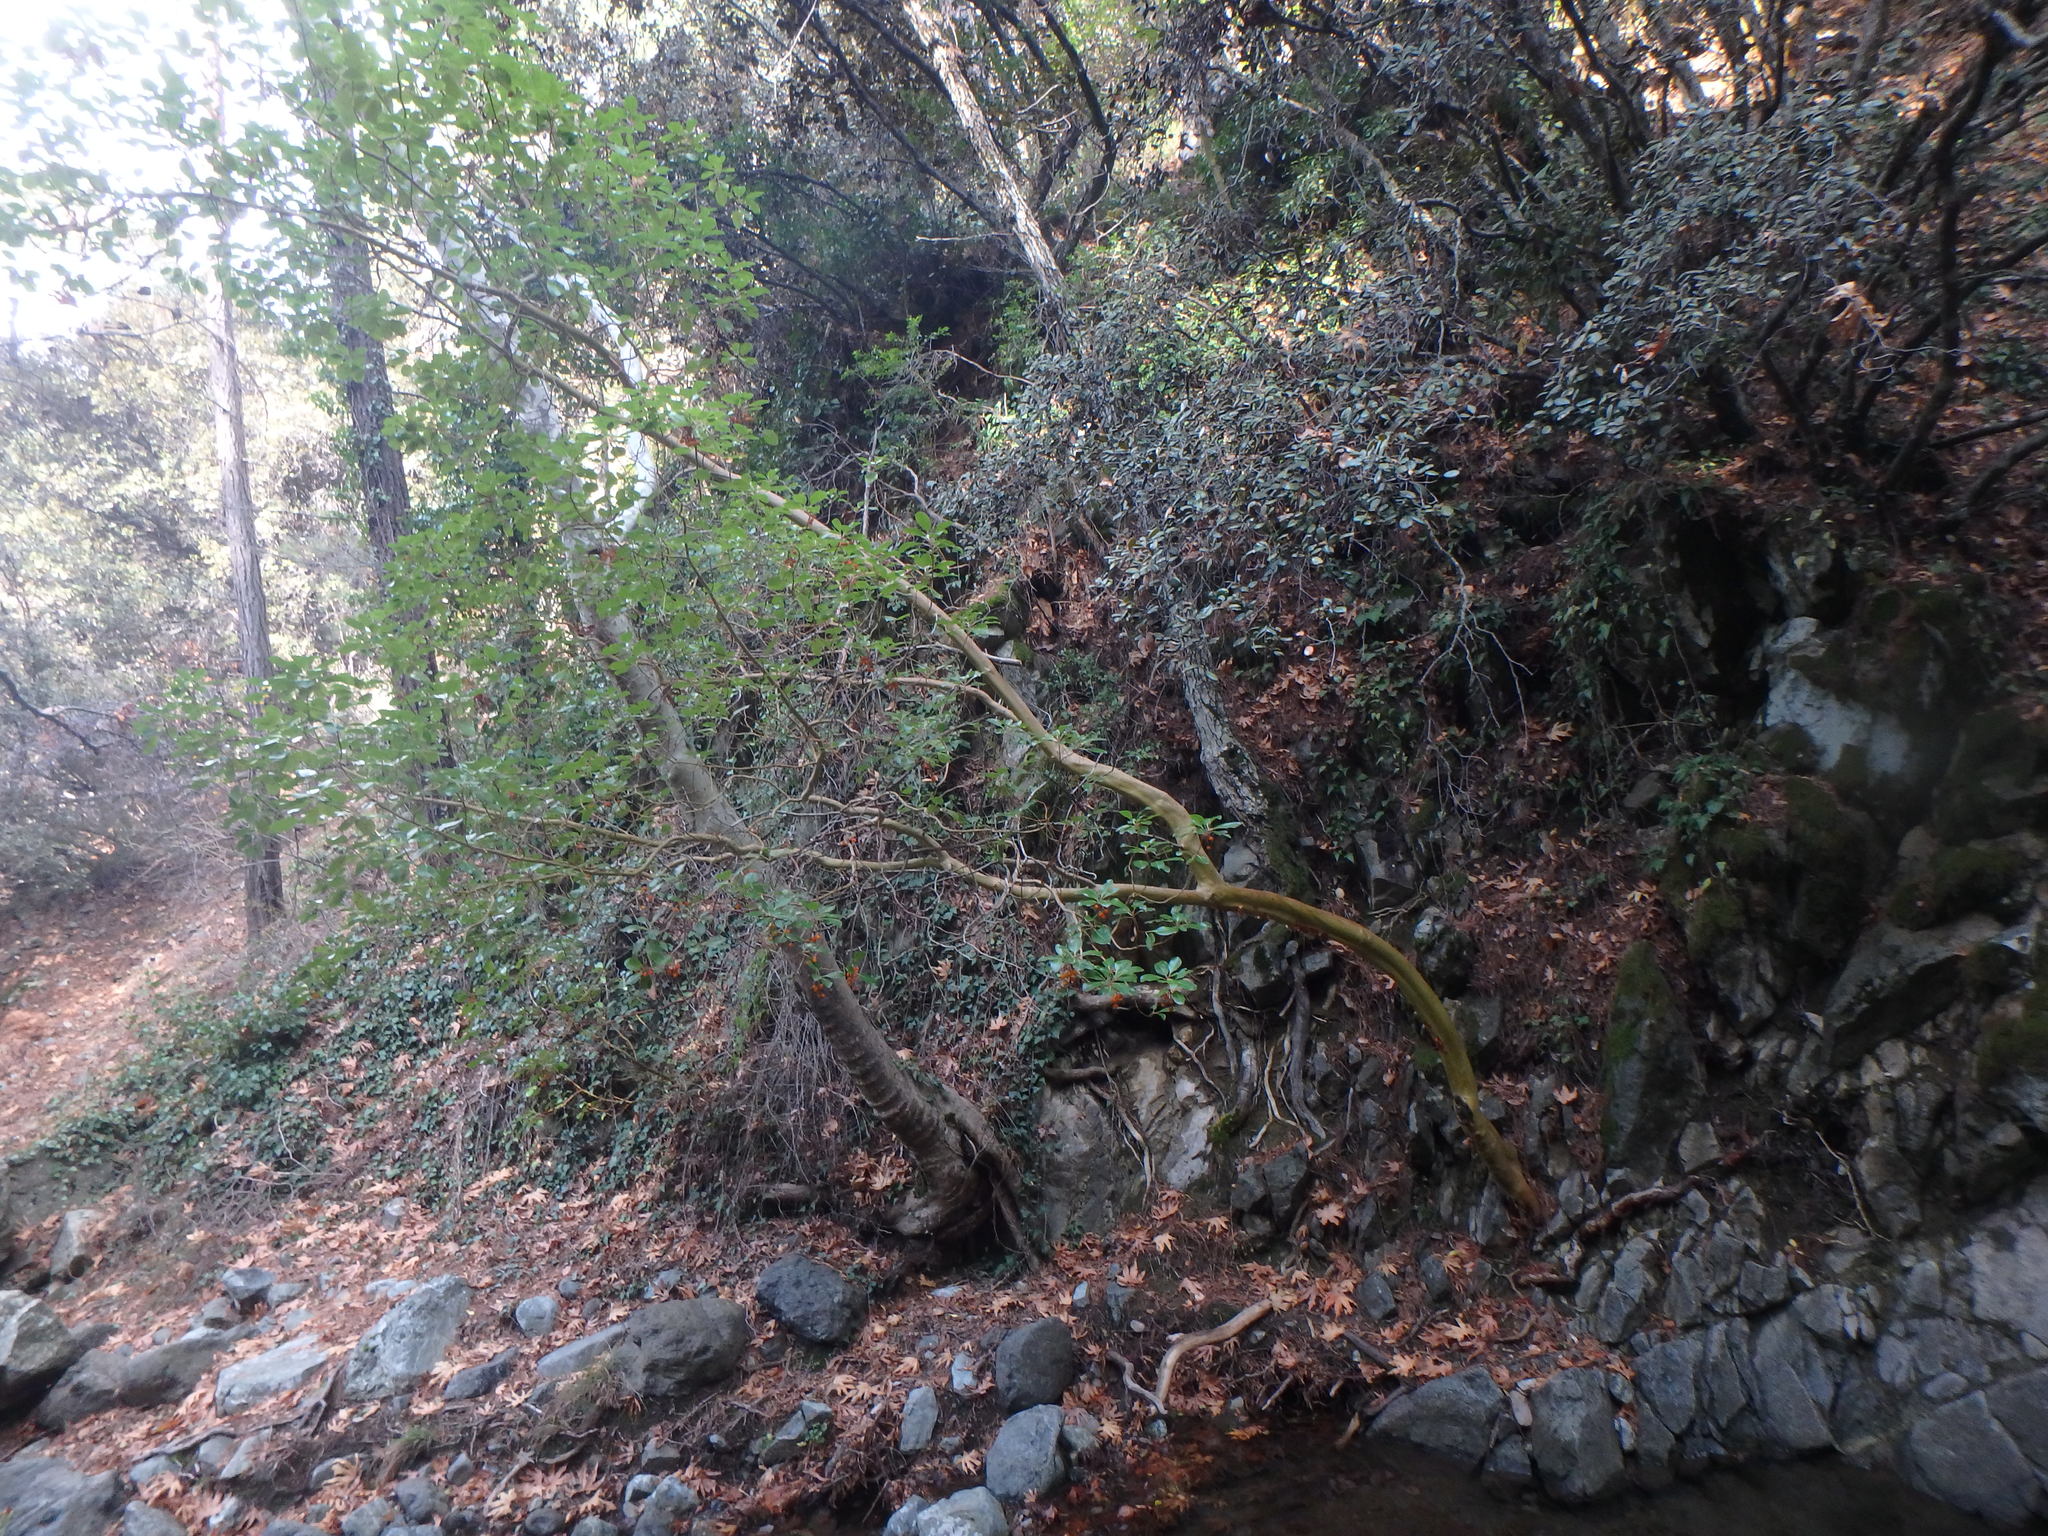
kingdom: Plantae
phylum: Tracheophyta
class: Magnoliopsida
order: Ericales
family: Ericaceae
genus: Arbutus
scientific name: Arbutus andrachne
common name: Greek strawberry tree
